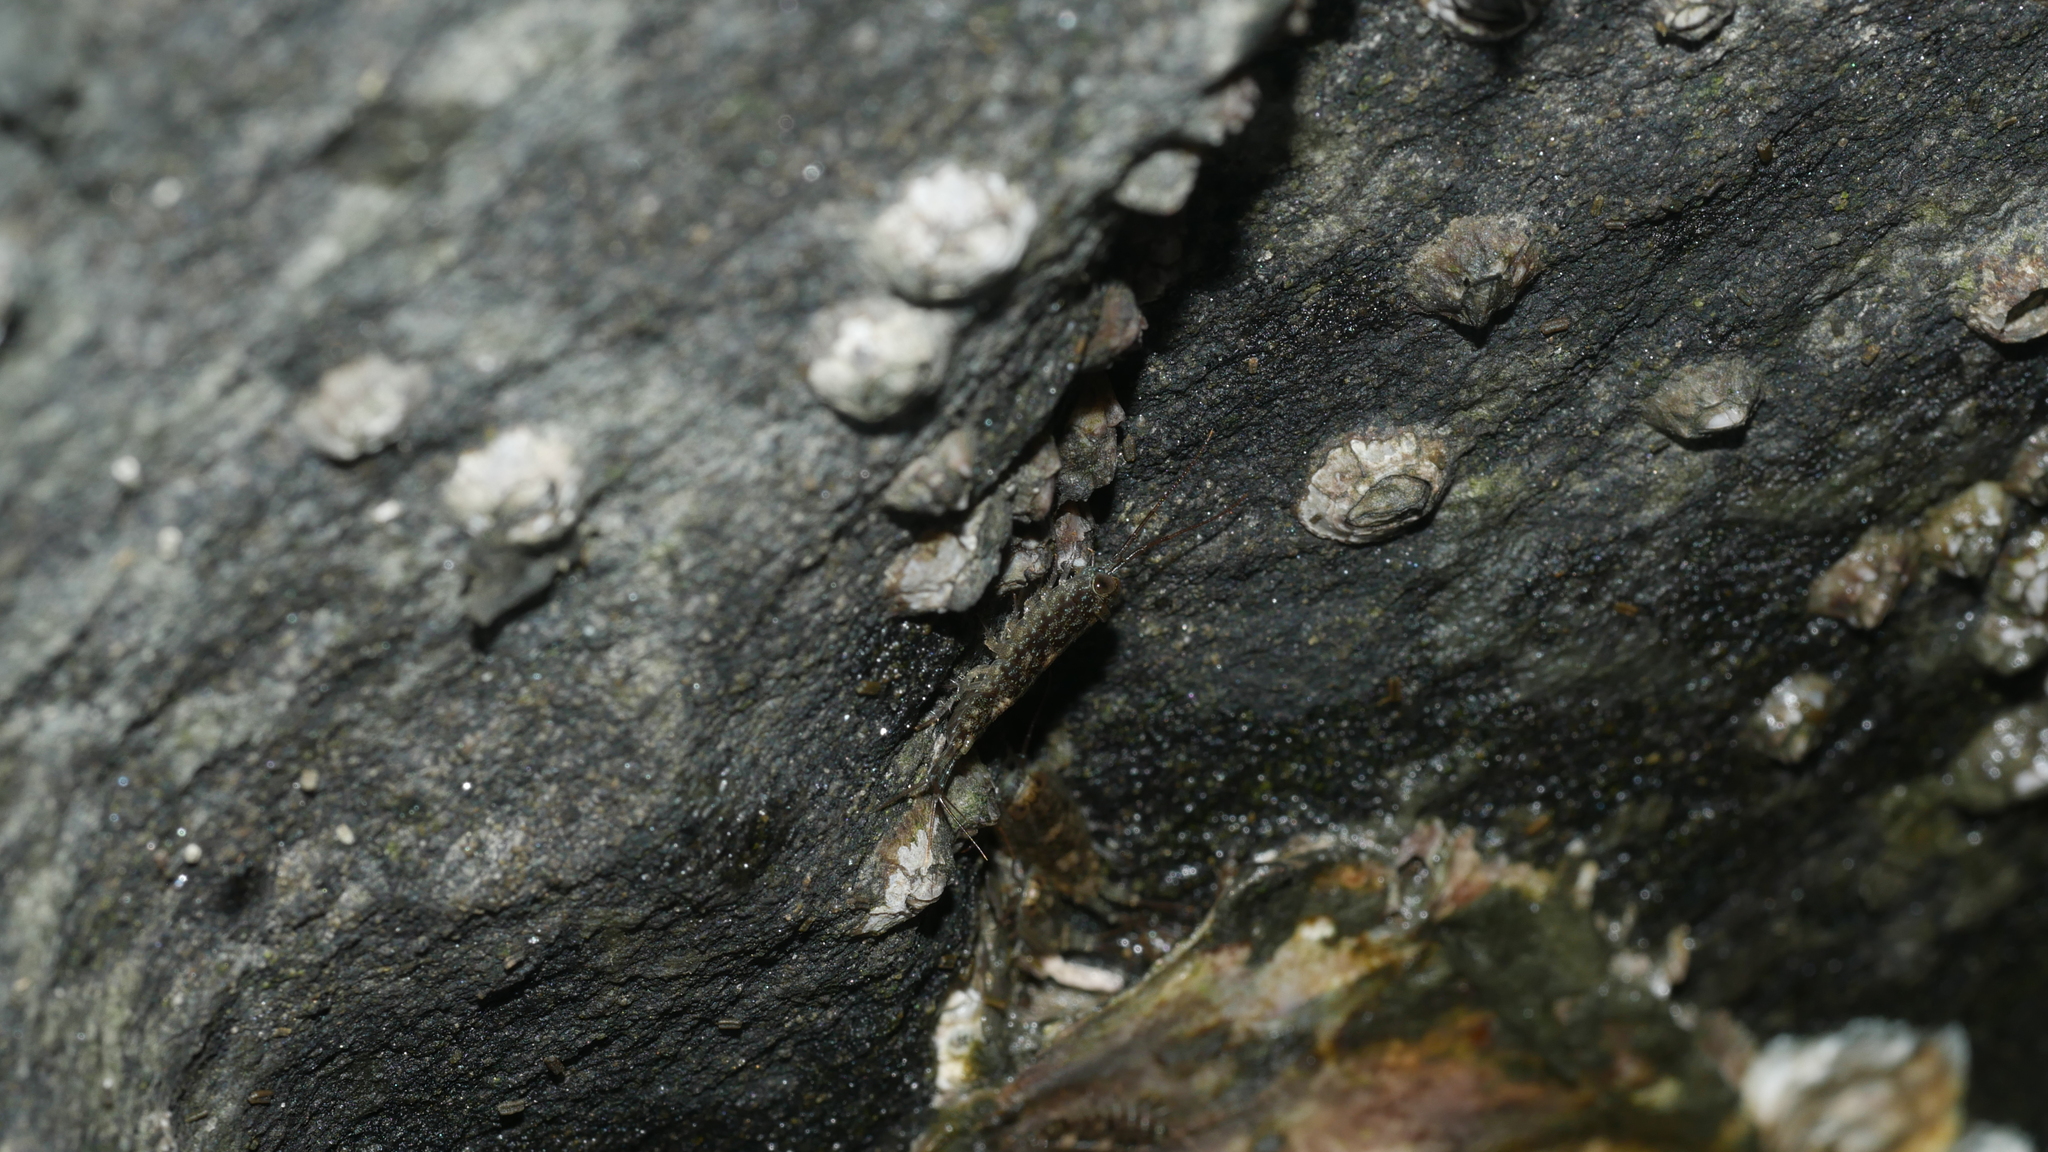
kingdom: Animalia
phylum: Arthropoda
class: Malacostraca
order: Isopoda
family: Ligiidae
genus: Ligia
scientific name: Ligia exotica
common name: Wharf roach
